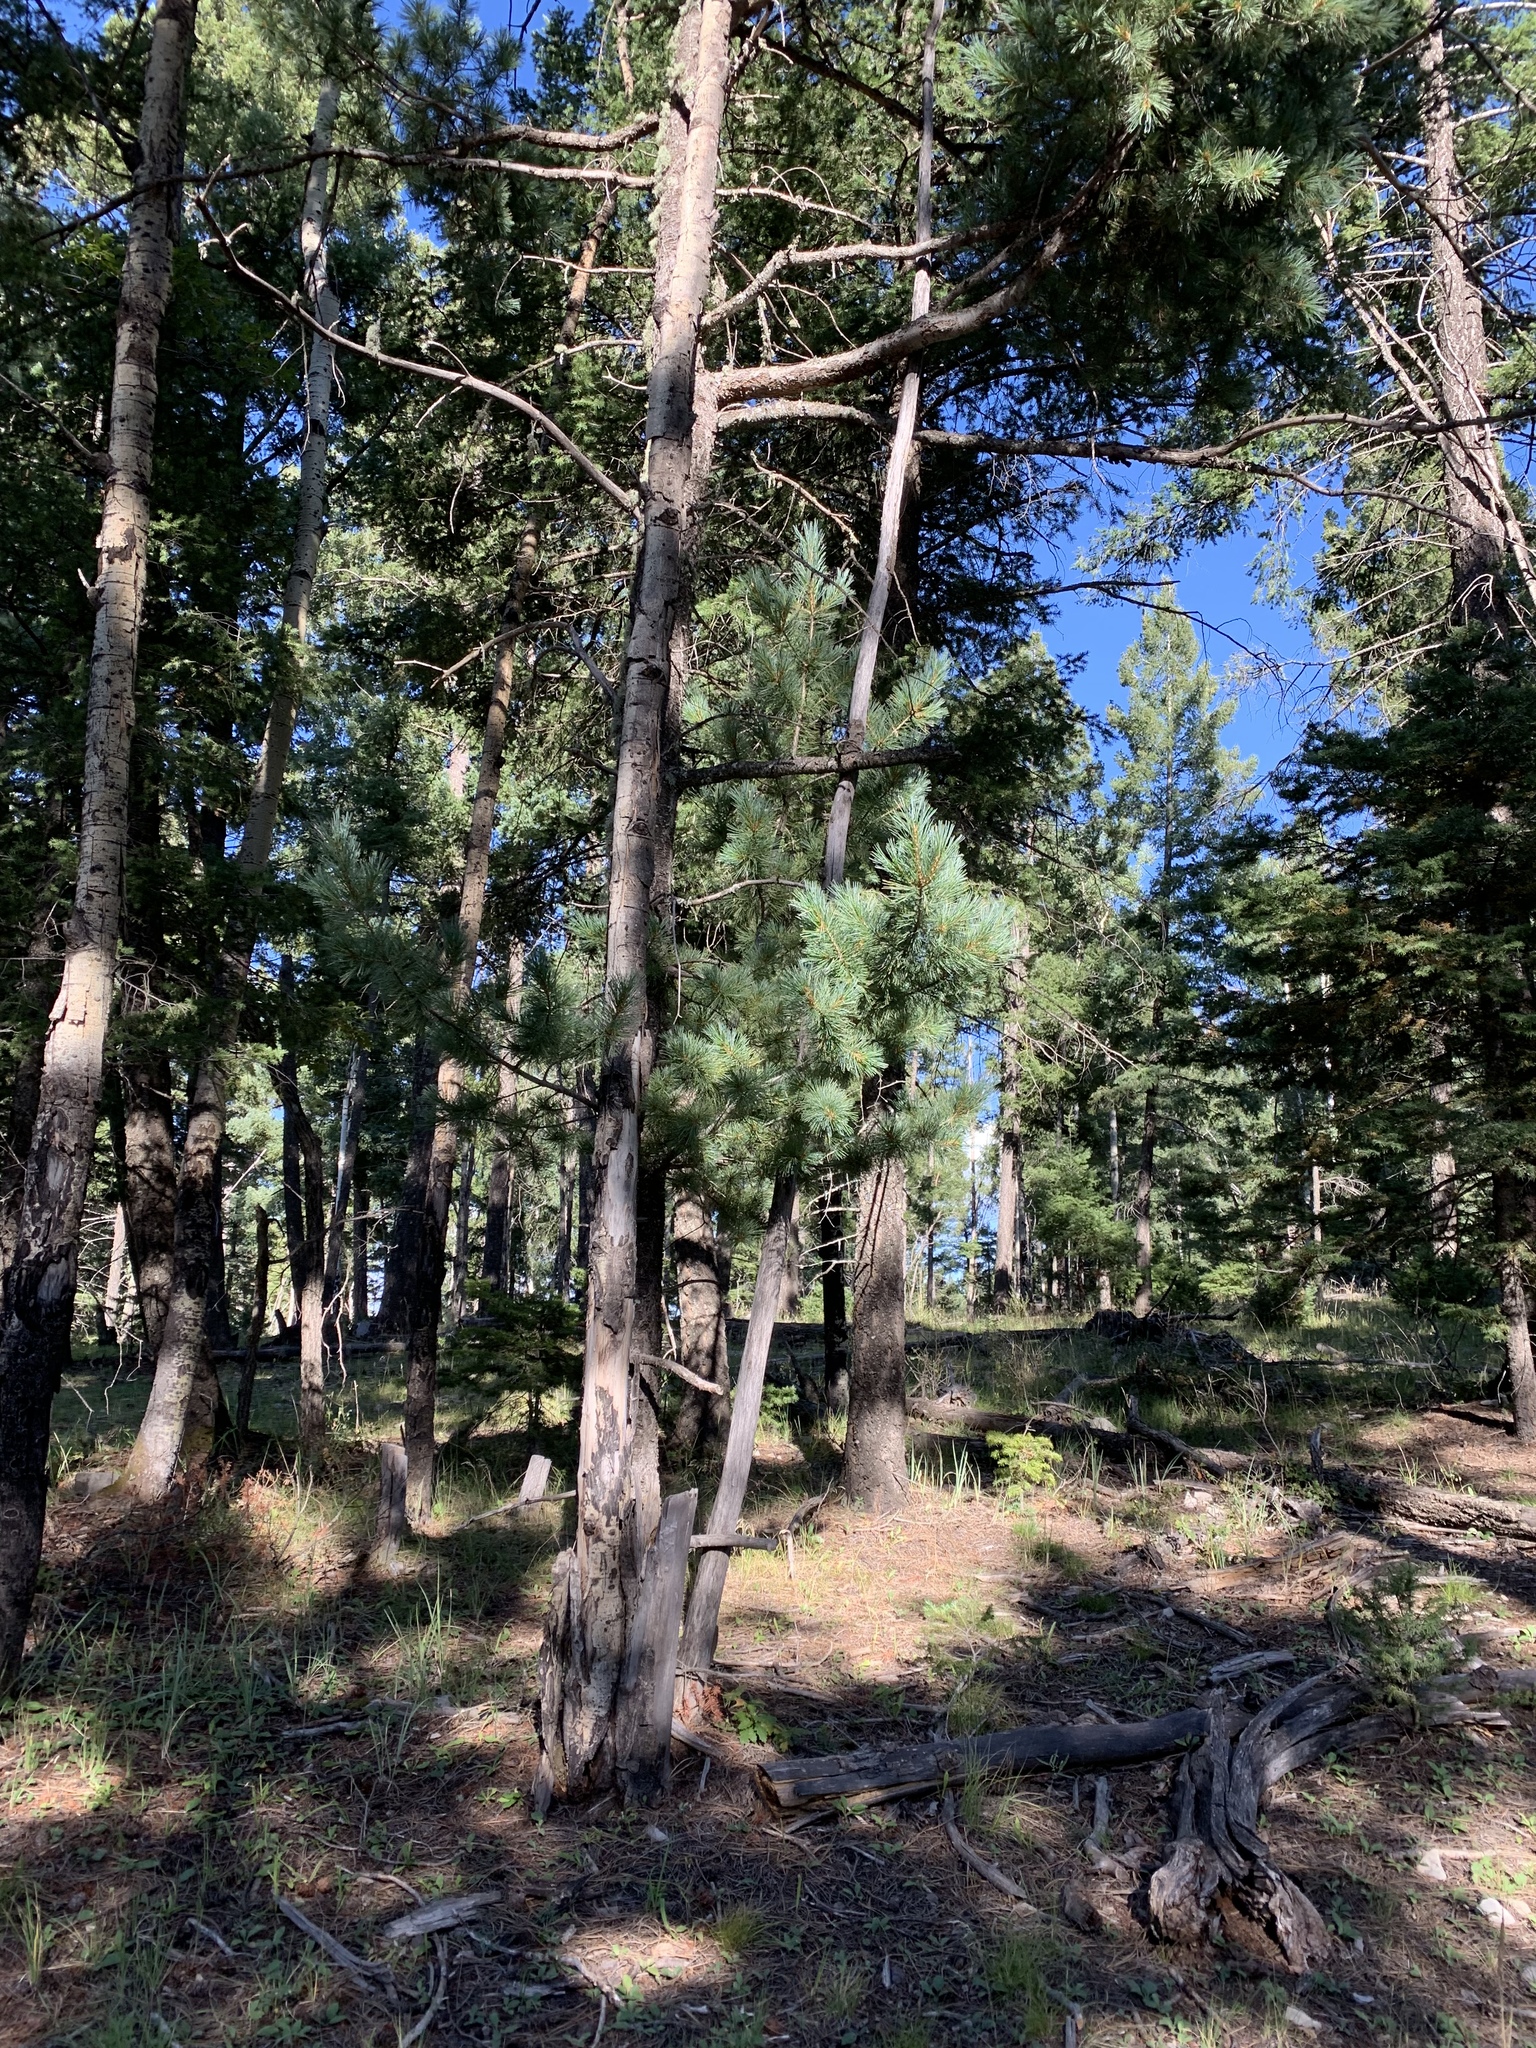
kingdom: Plantae
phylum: Tracheophyta
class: Pinopsida
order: Pinales
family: Pinaceae
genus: Pinus
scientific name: Pinus strobiformis
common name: Southwestern white pine
